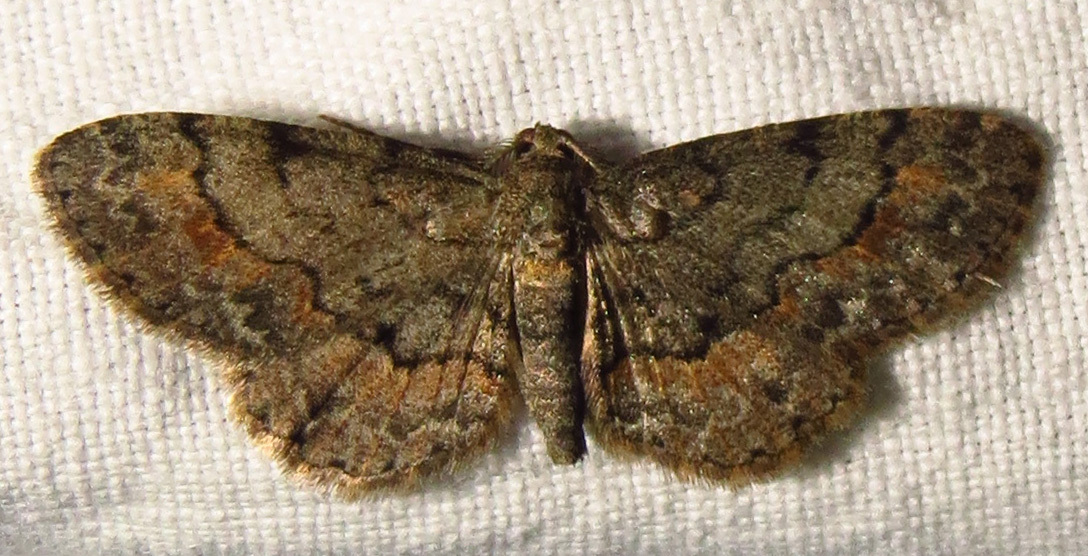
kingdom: Animalia
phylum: Arthropoda
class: Insecta
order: Lepidoptera
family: Geometridae
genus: Glenoides
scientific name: Glenoides texanaria
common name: Texas gray
